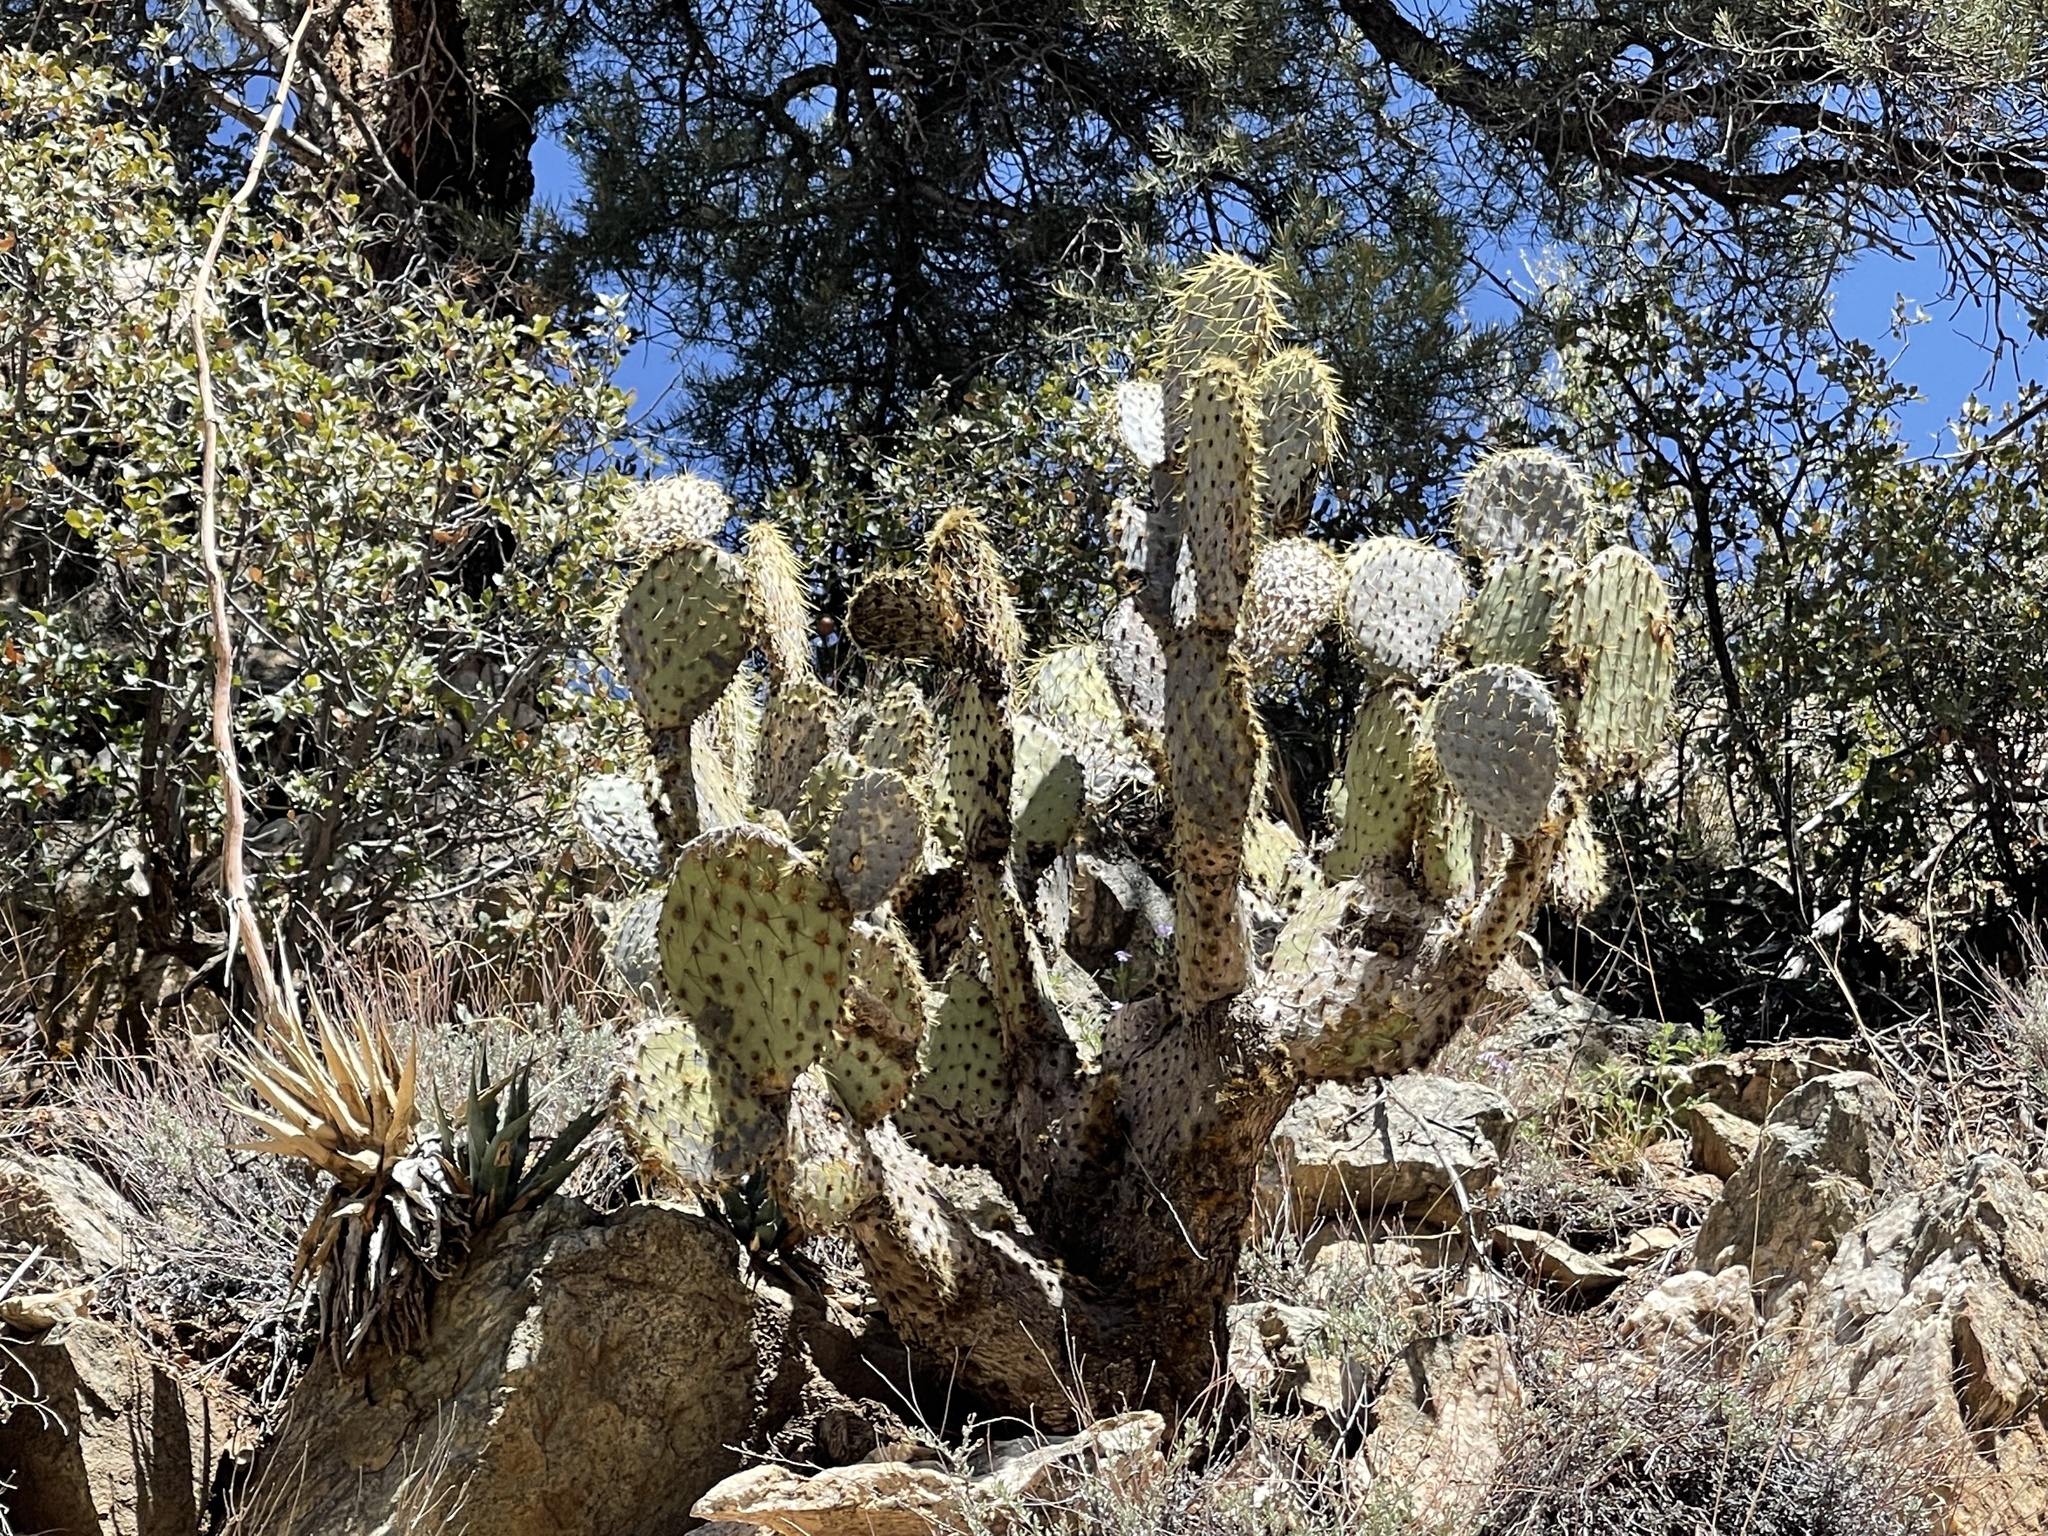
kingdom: Plantae
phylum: Tracheophyta
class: Magnoliopsida
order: Caryophyllales
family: Cactaceae
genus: Opuntia
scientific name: Opuntia chlorotica
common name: Dollar-joint prickly-pear
